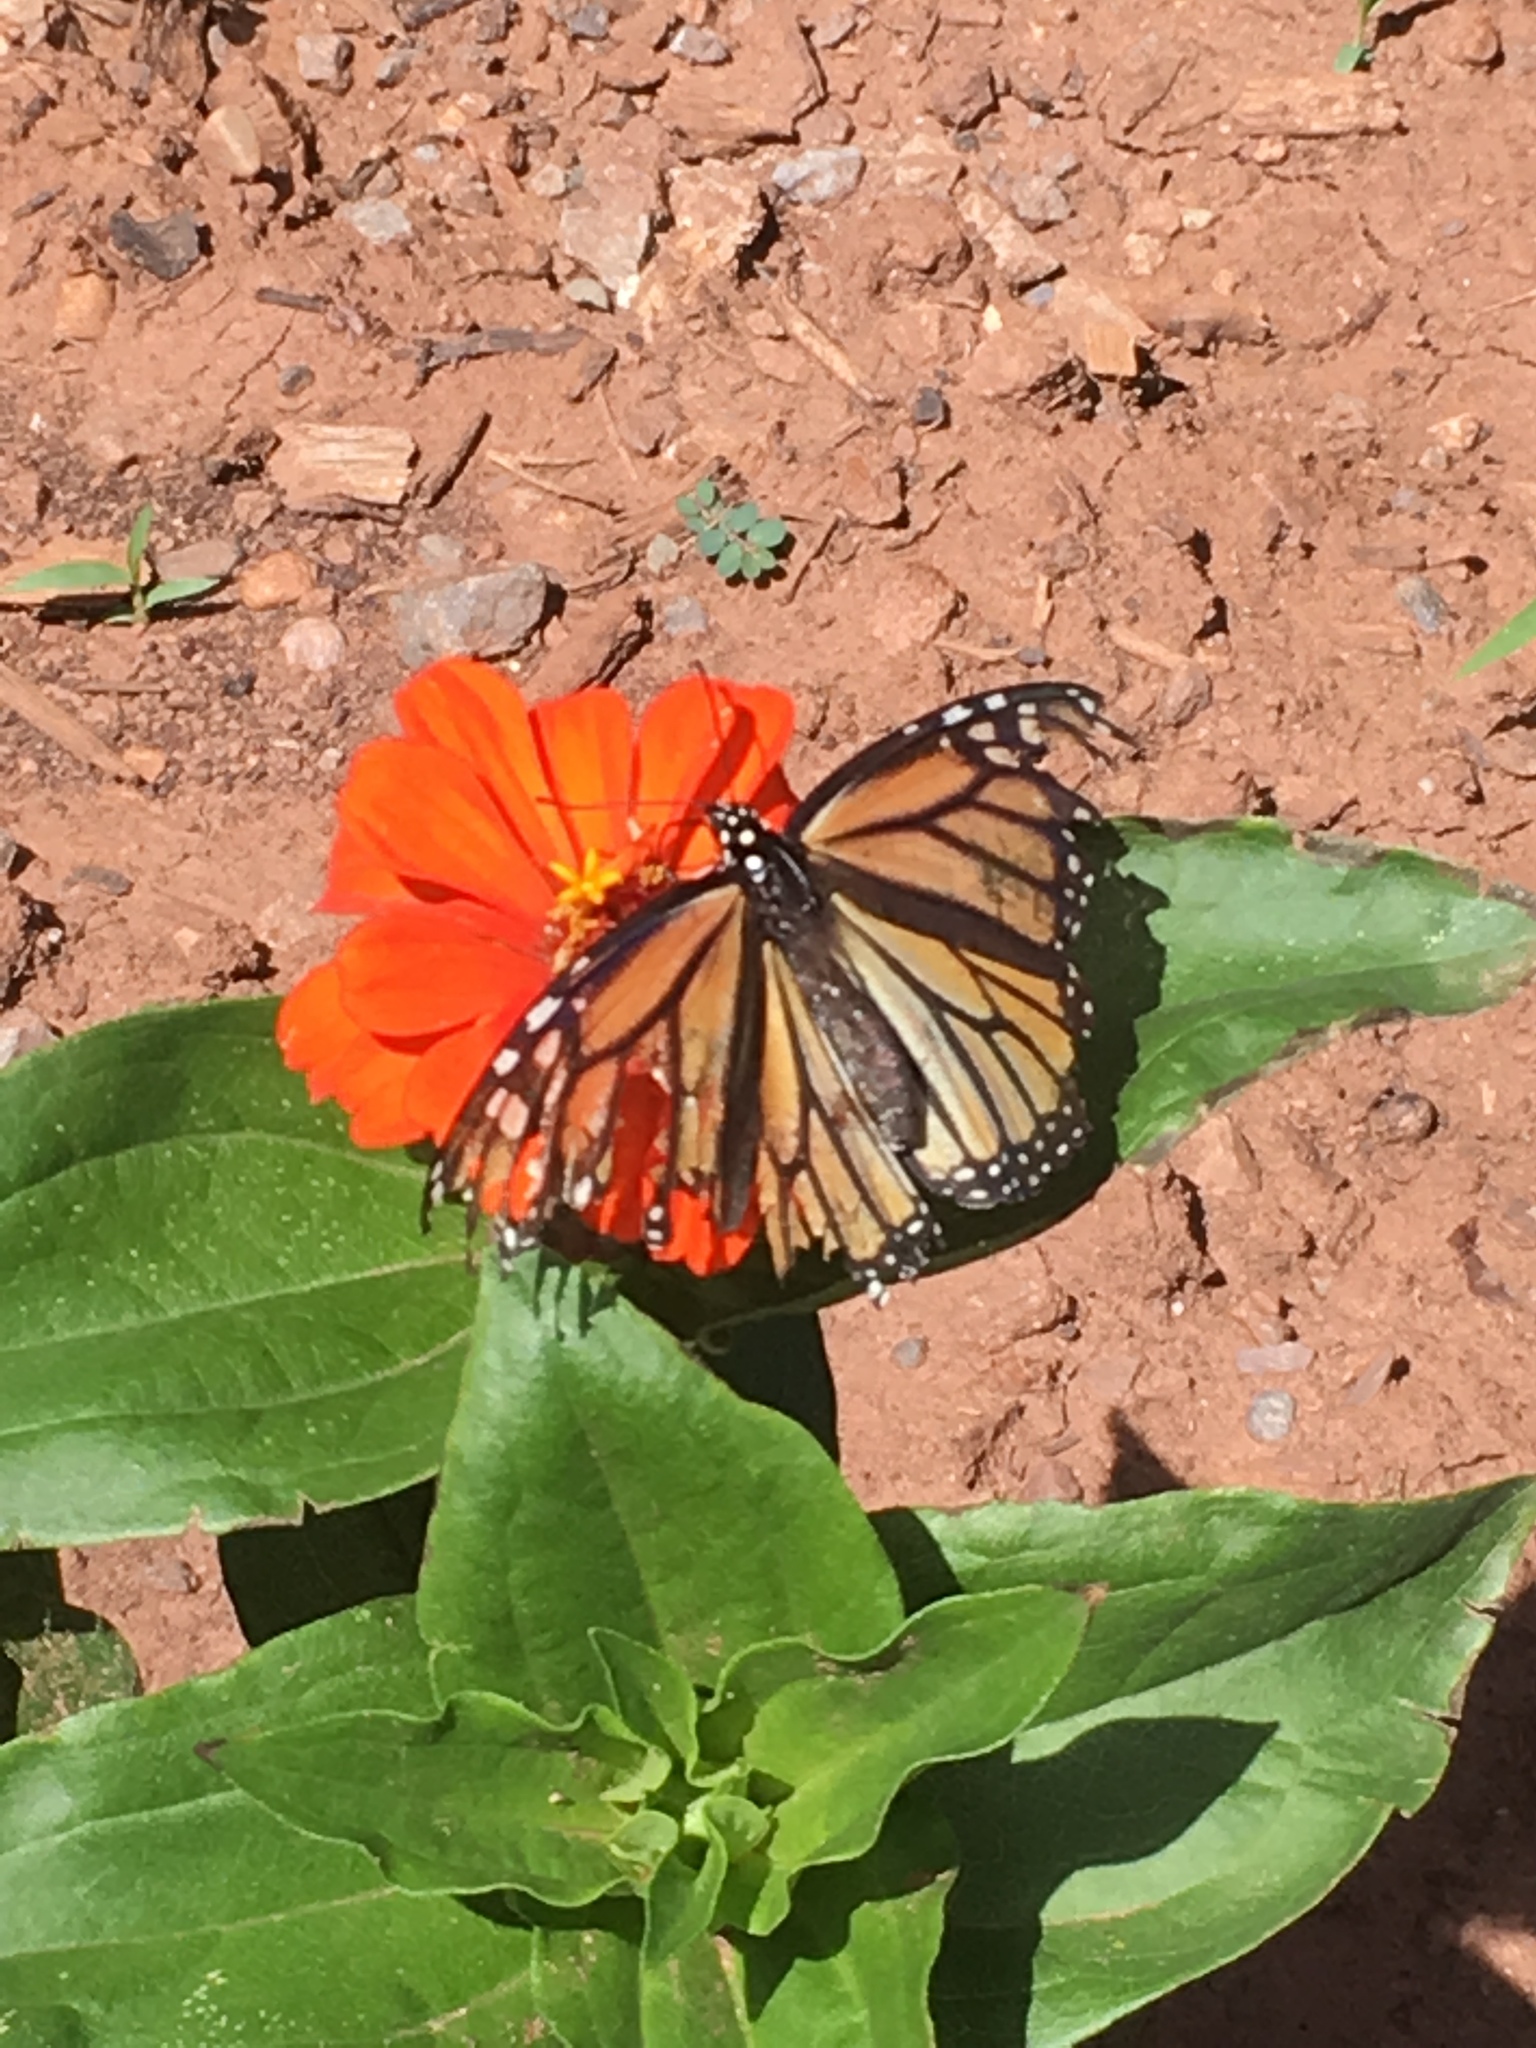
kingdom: Animalia
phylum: Arthropoda
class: Insecta
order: Lepidoptera
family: Nymphalidae
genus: Danaus
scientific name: Danaus plexippus
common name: Monarch
